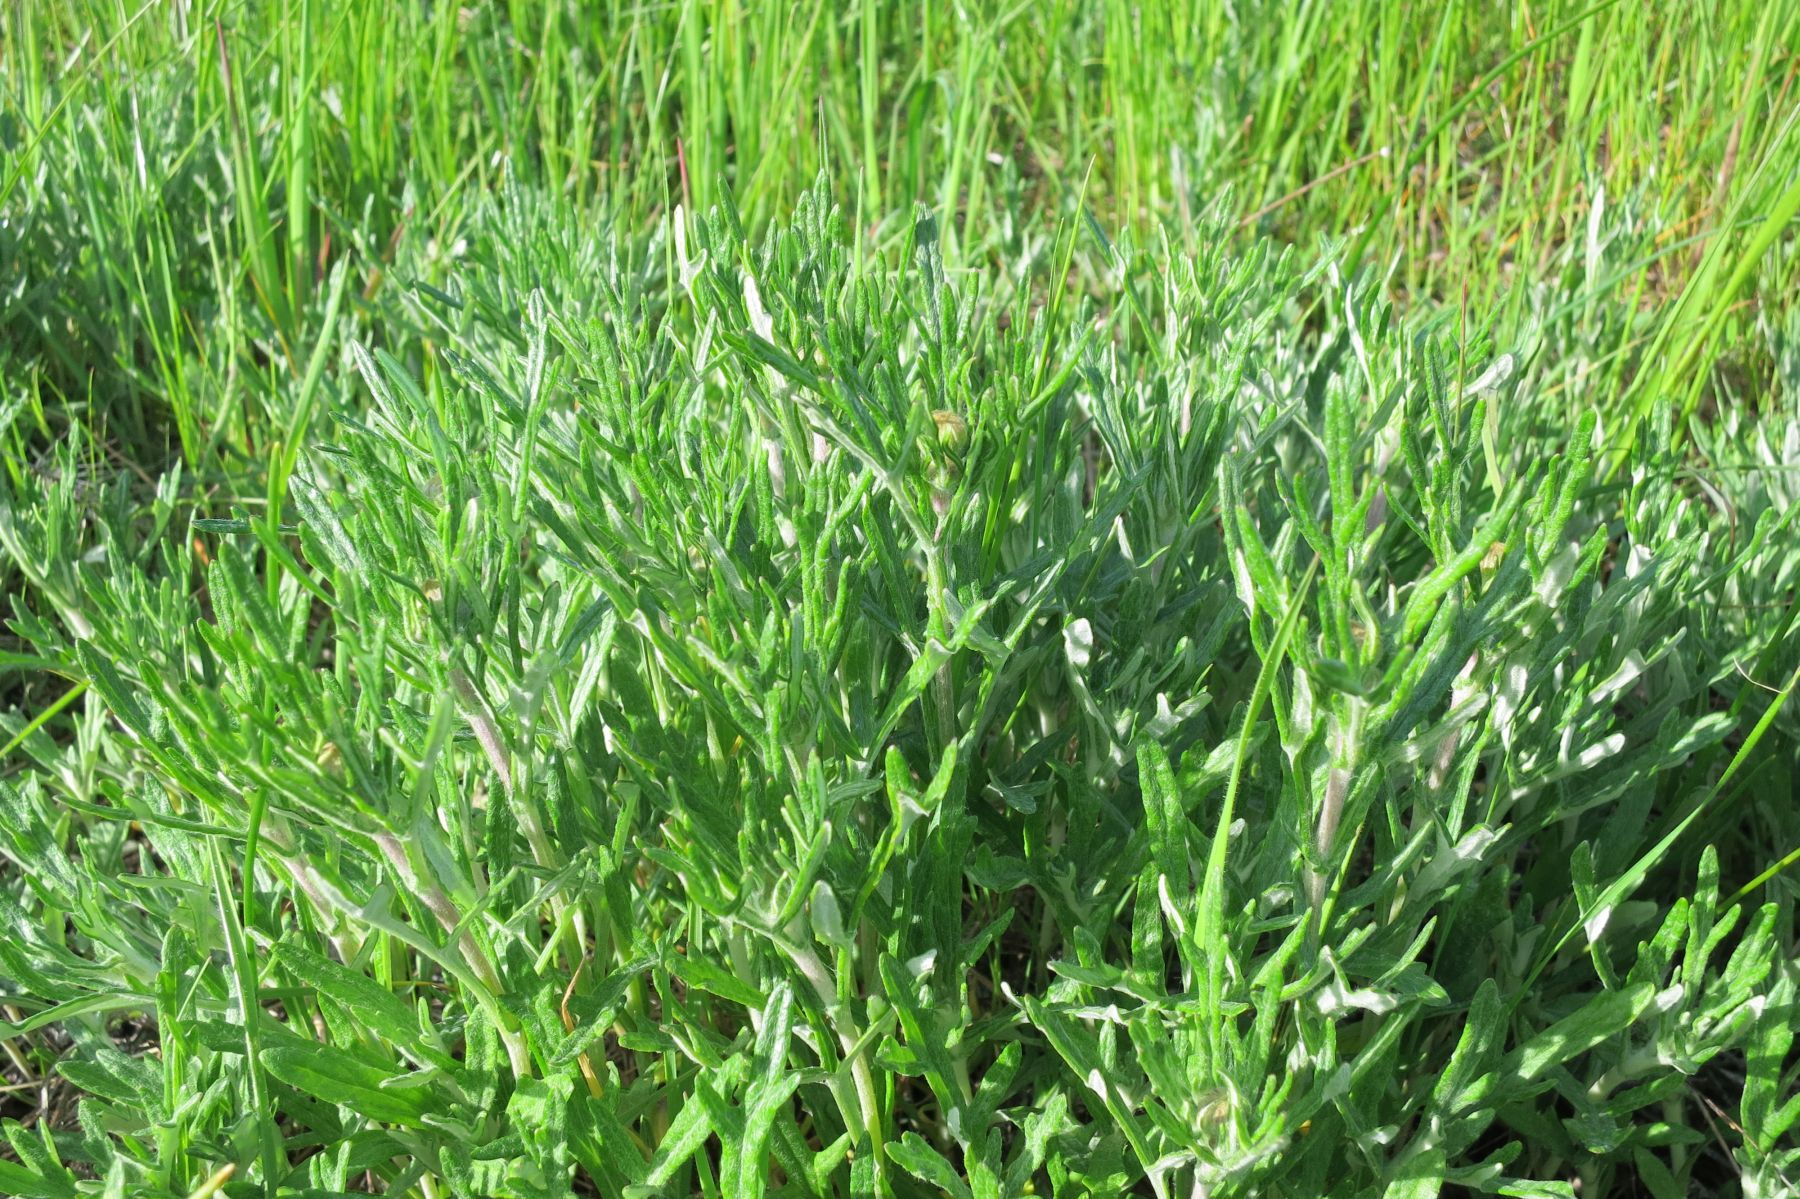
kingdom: Plantae
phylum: Tracheophyta
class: Magnoliopsida
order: Asterales
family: Asteraceae
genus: Eriophyllum
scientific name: Eriophyllum lanatum
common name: Common woolly-sunflower
